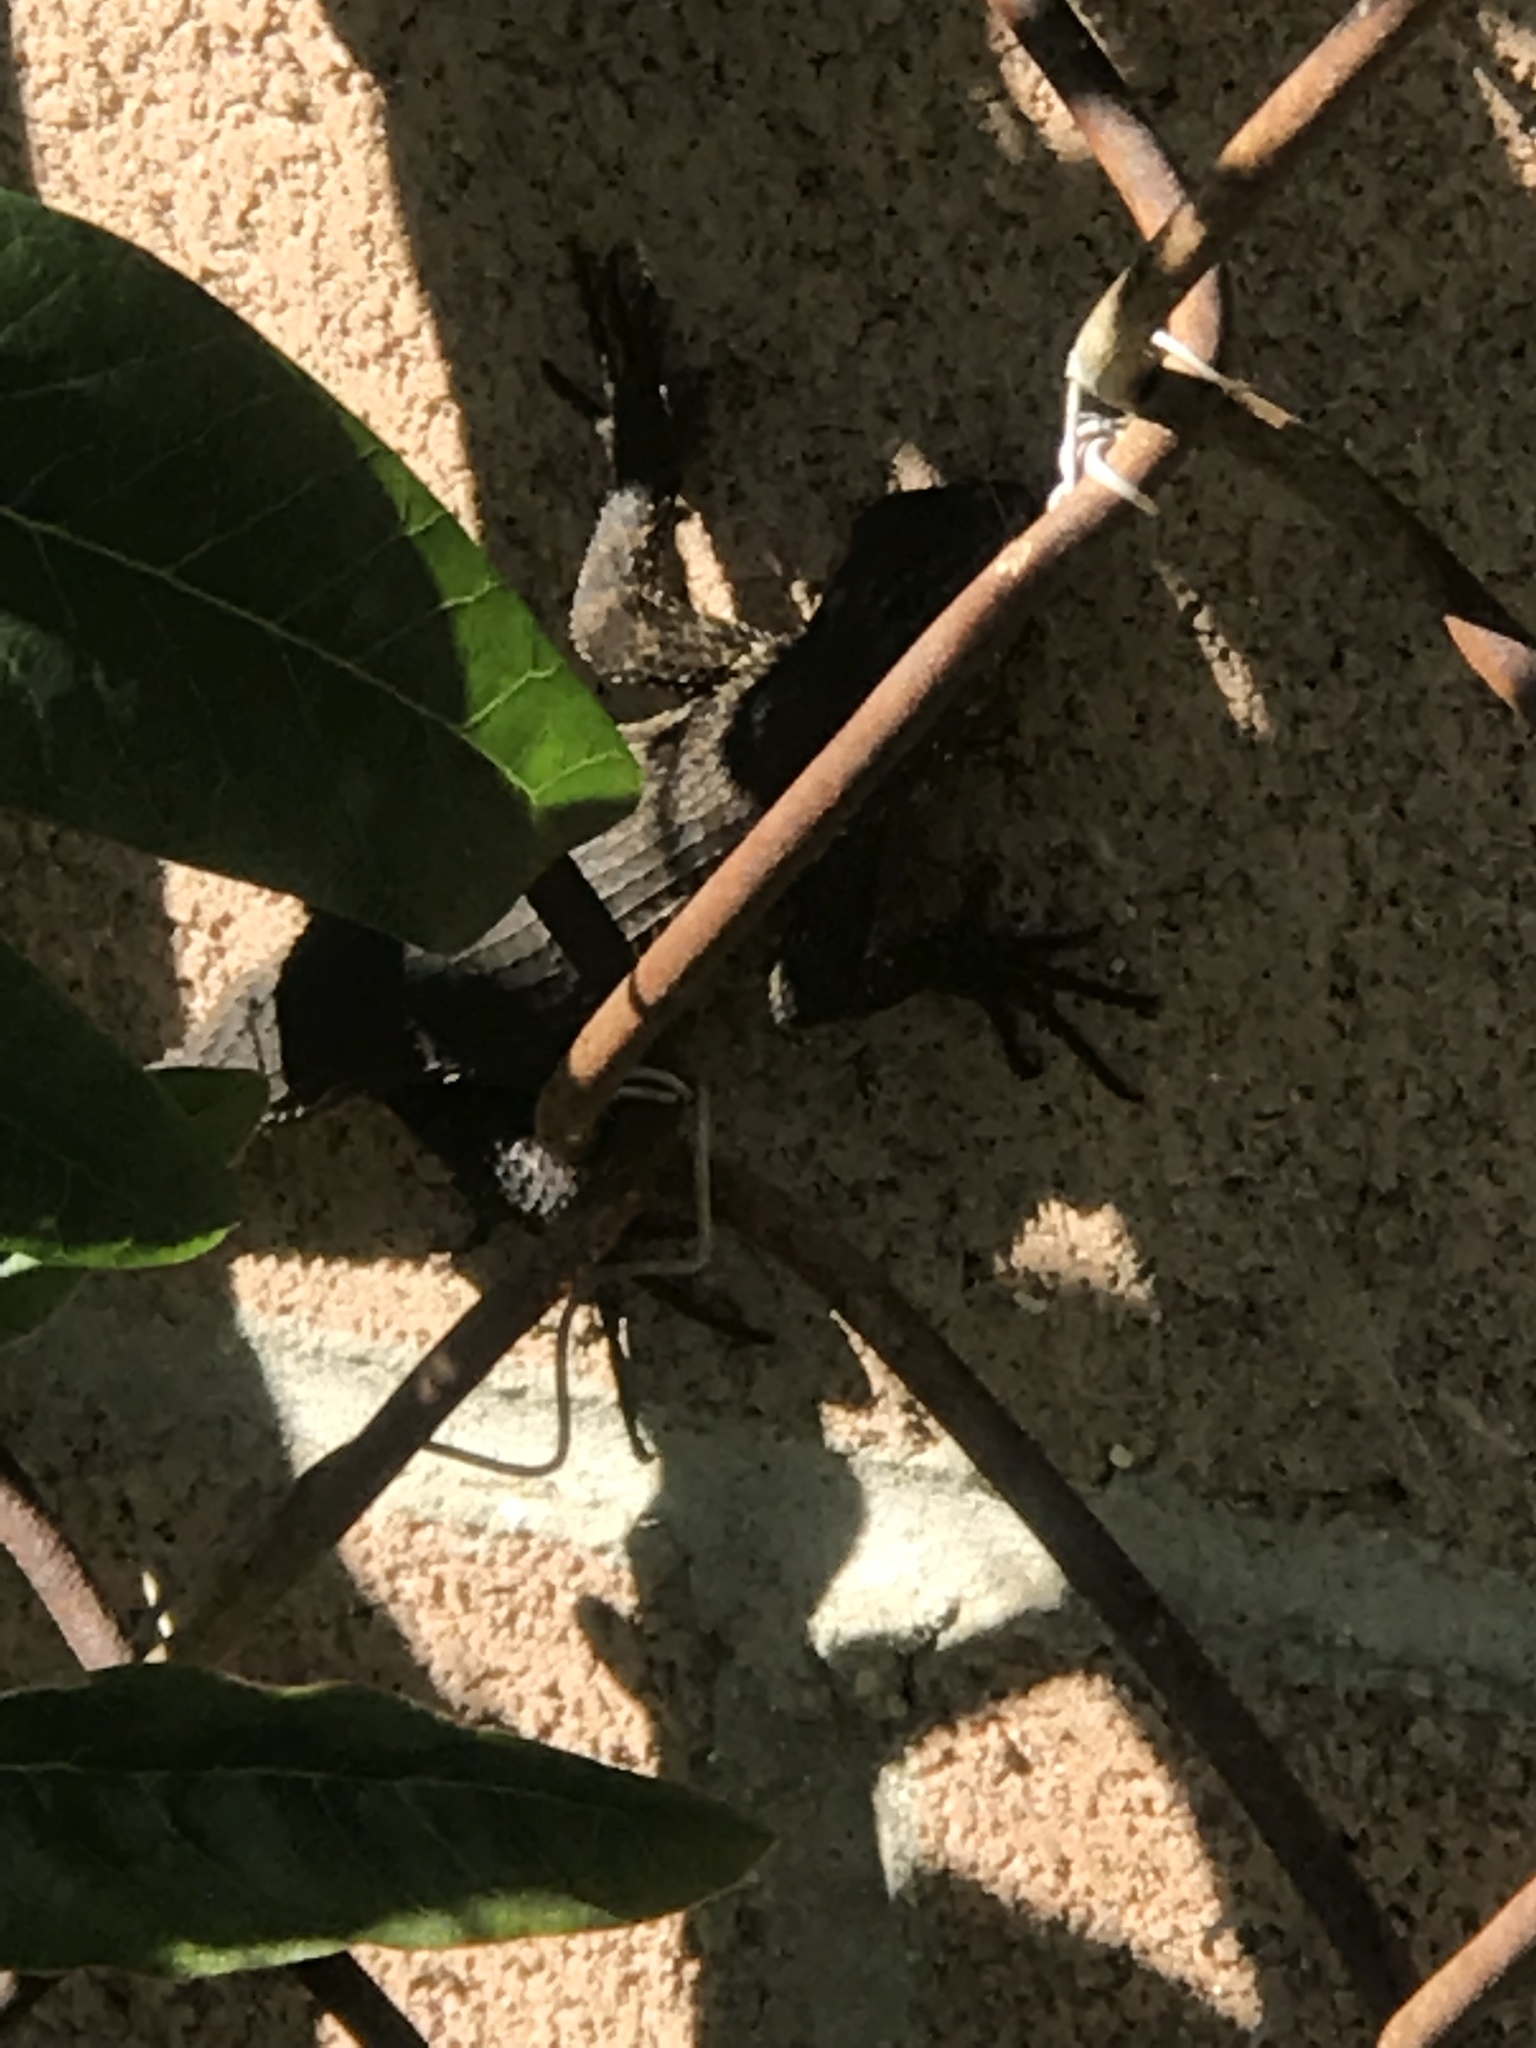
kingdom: Animalia
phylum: Chordata
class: Squamata
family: Phrynosomatidae
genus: Sceloporus
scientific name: Sceloporus occidentalis
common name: Western fence lizard
